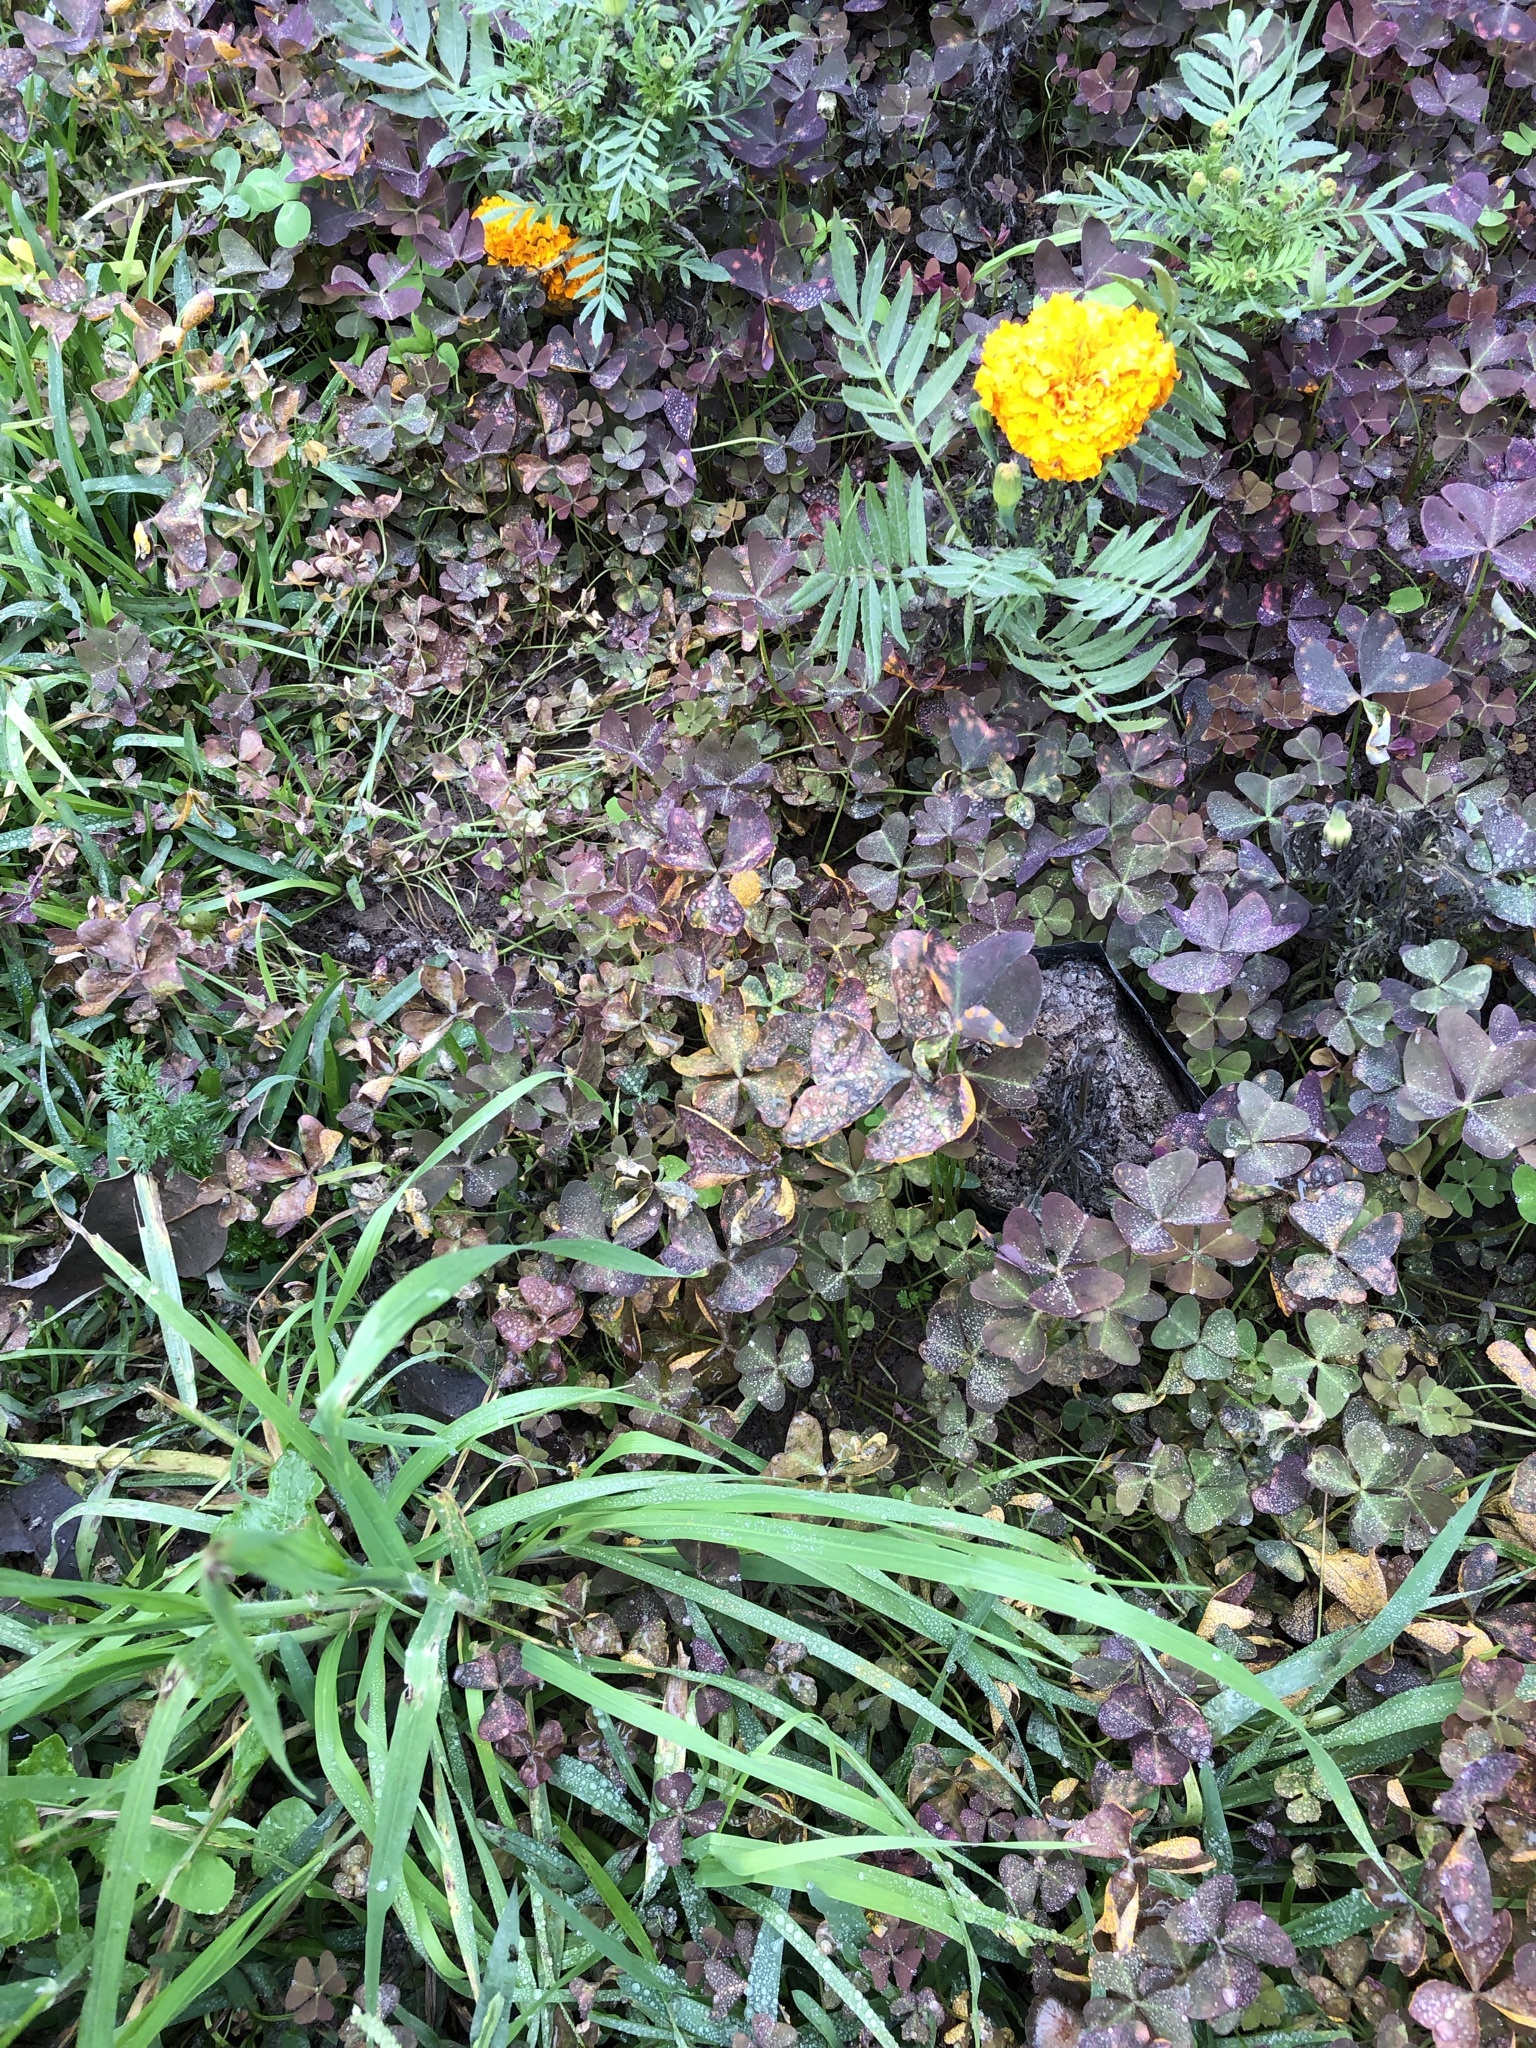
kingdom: Plantae
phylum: Tracheophyta
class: Magnoliopsida
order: Oxalidales
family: Oxalidaceae
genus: Oxalis
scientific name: Oxalis triangularis
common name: Wood sorrel
